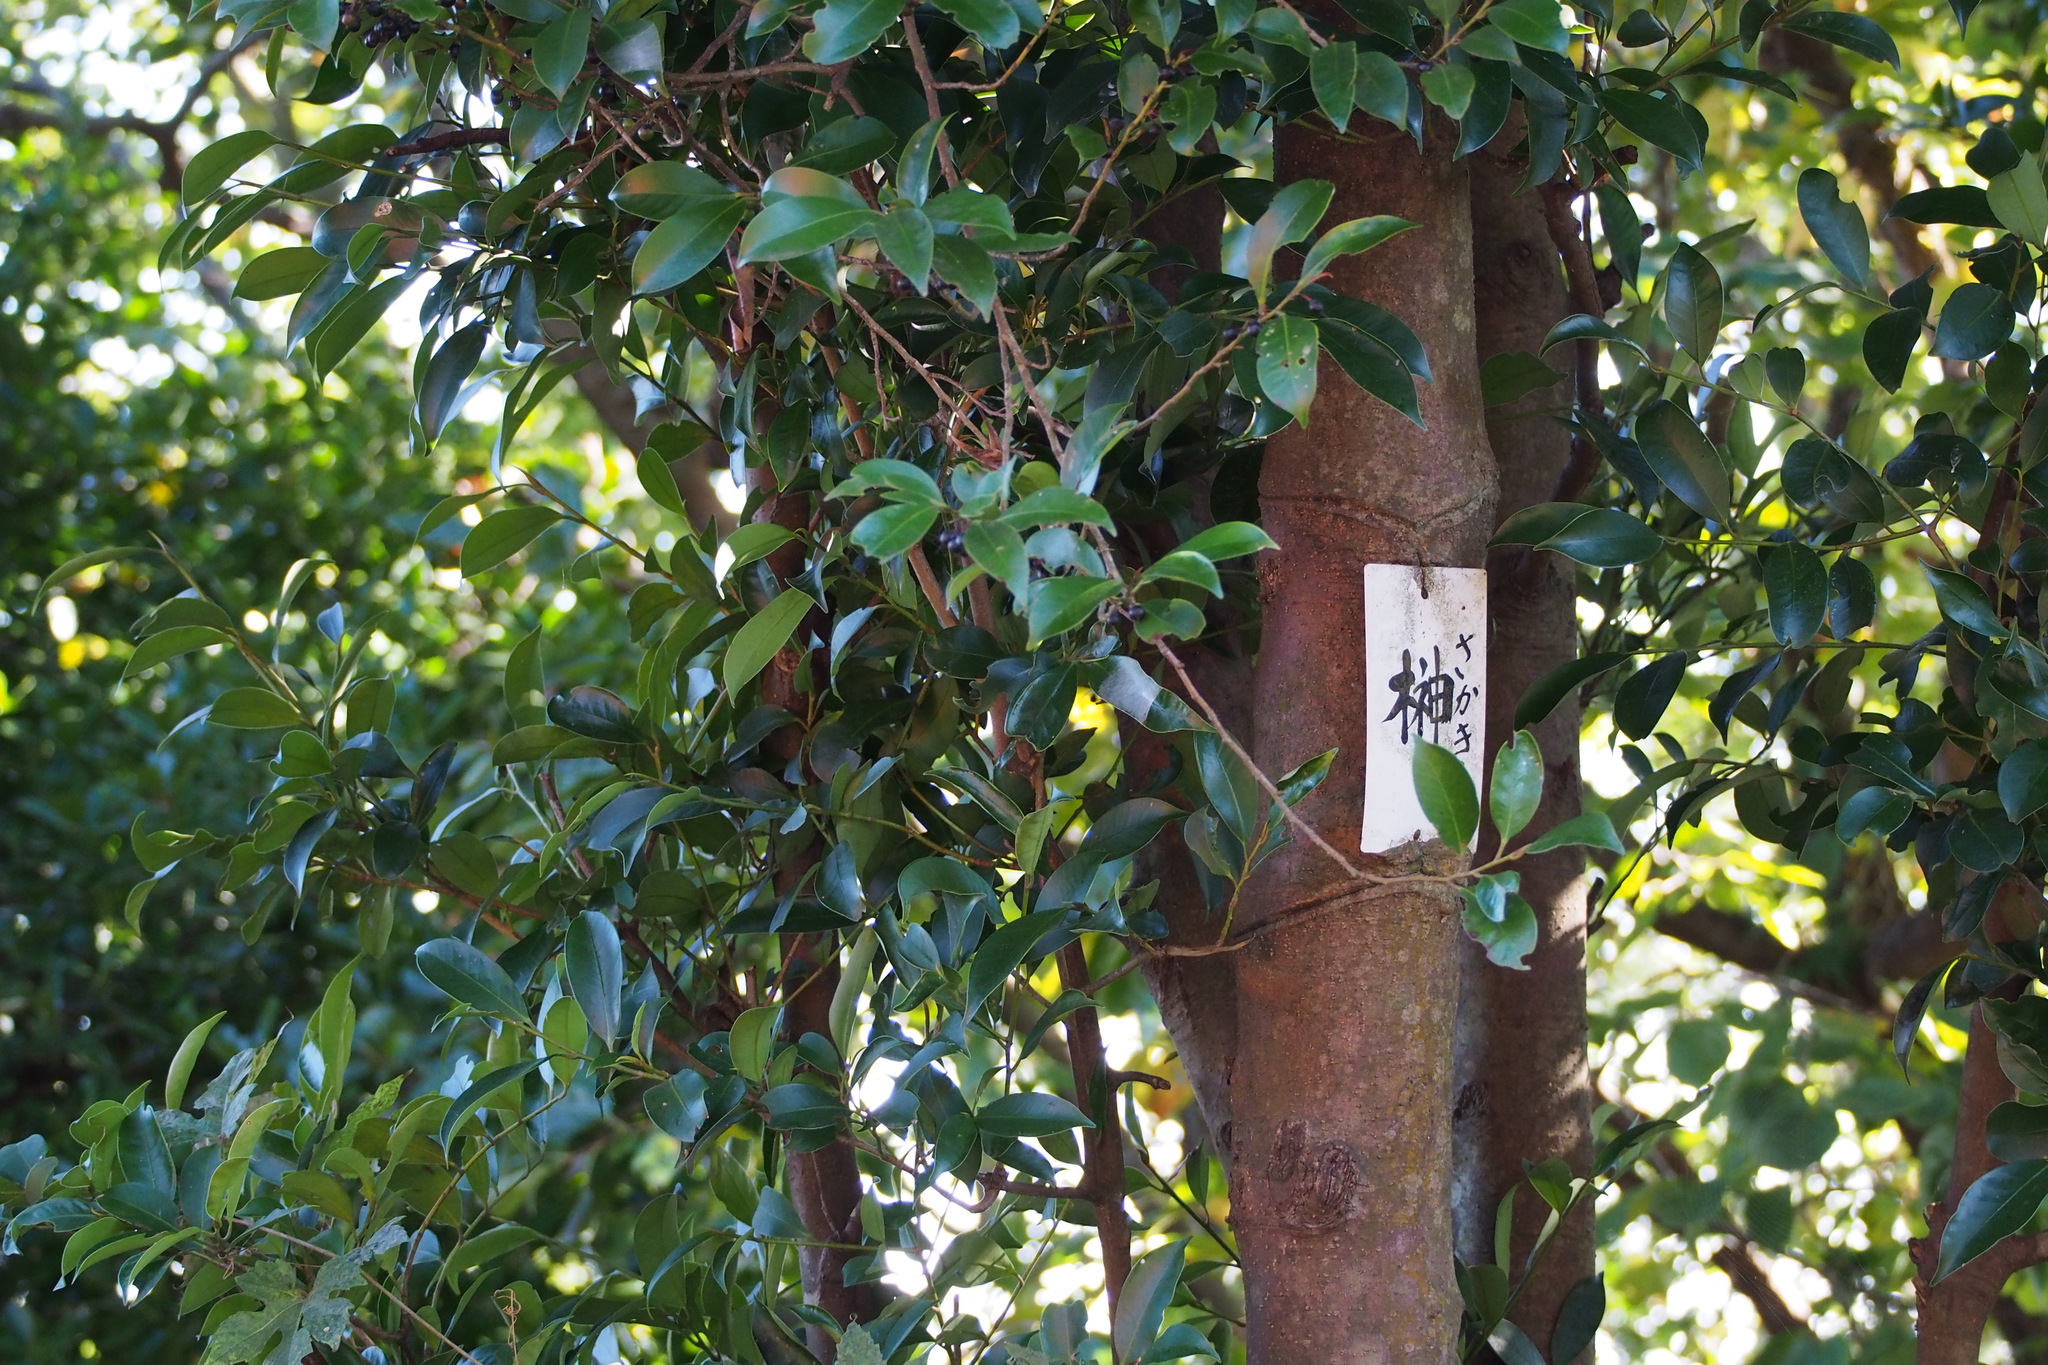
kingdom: Plantae
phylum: Tracheophyta
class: Magnoliopsida
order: Ericales
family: Pentaphylacaceae
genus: Cleyera
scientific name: Cleyera japonica
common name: Sakaki
